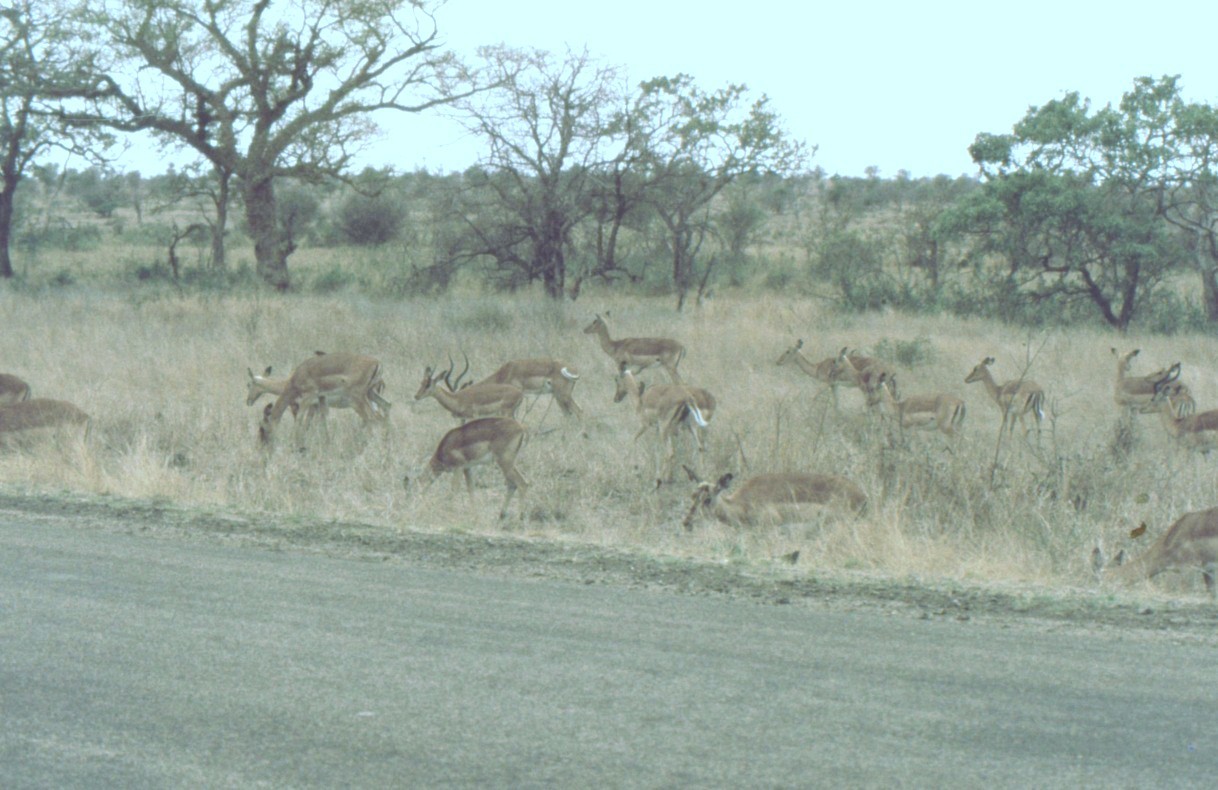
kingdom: Animalia
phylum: Chordata
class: Mammalia
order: Artiodactyla
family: Bovidae
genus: Aepyceros
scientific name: Aepyceros melampus
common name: Impala
